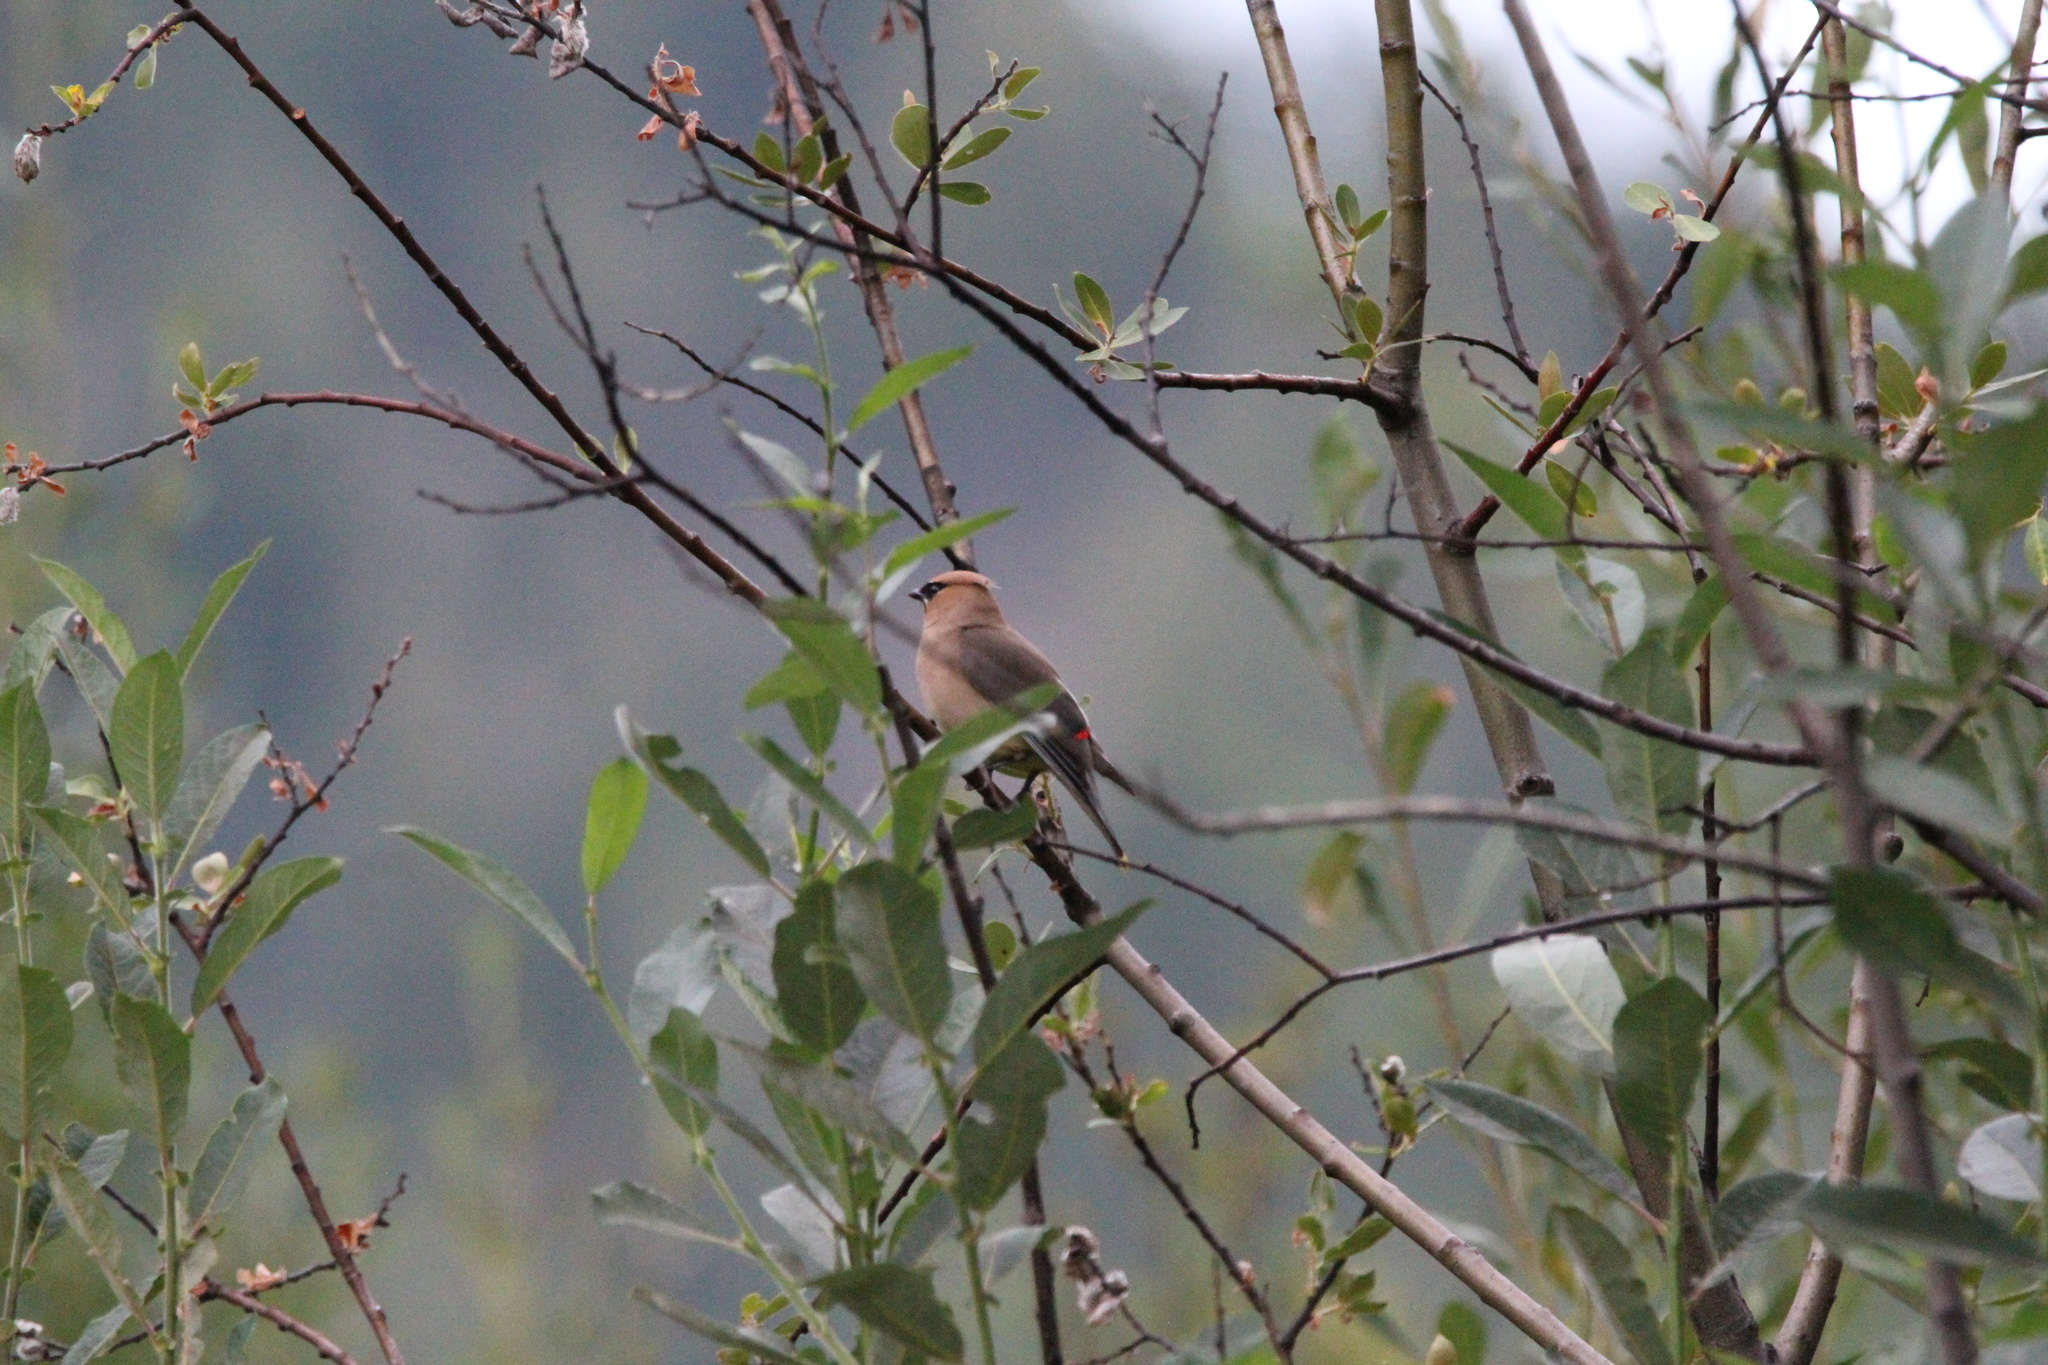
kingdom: Animalia
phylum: Chordata
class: Aves
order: Passeriformes
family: Bombycillidae
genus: Bombycilla
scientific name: Bombycilla cedrorum
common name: Cedar waxwing
